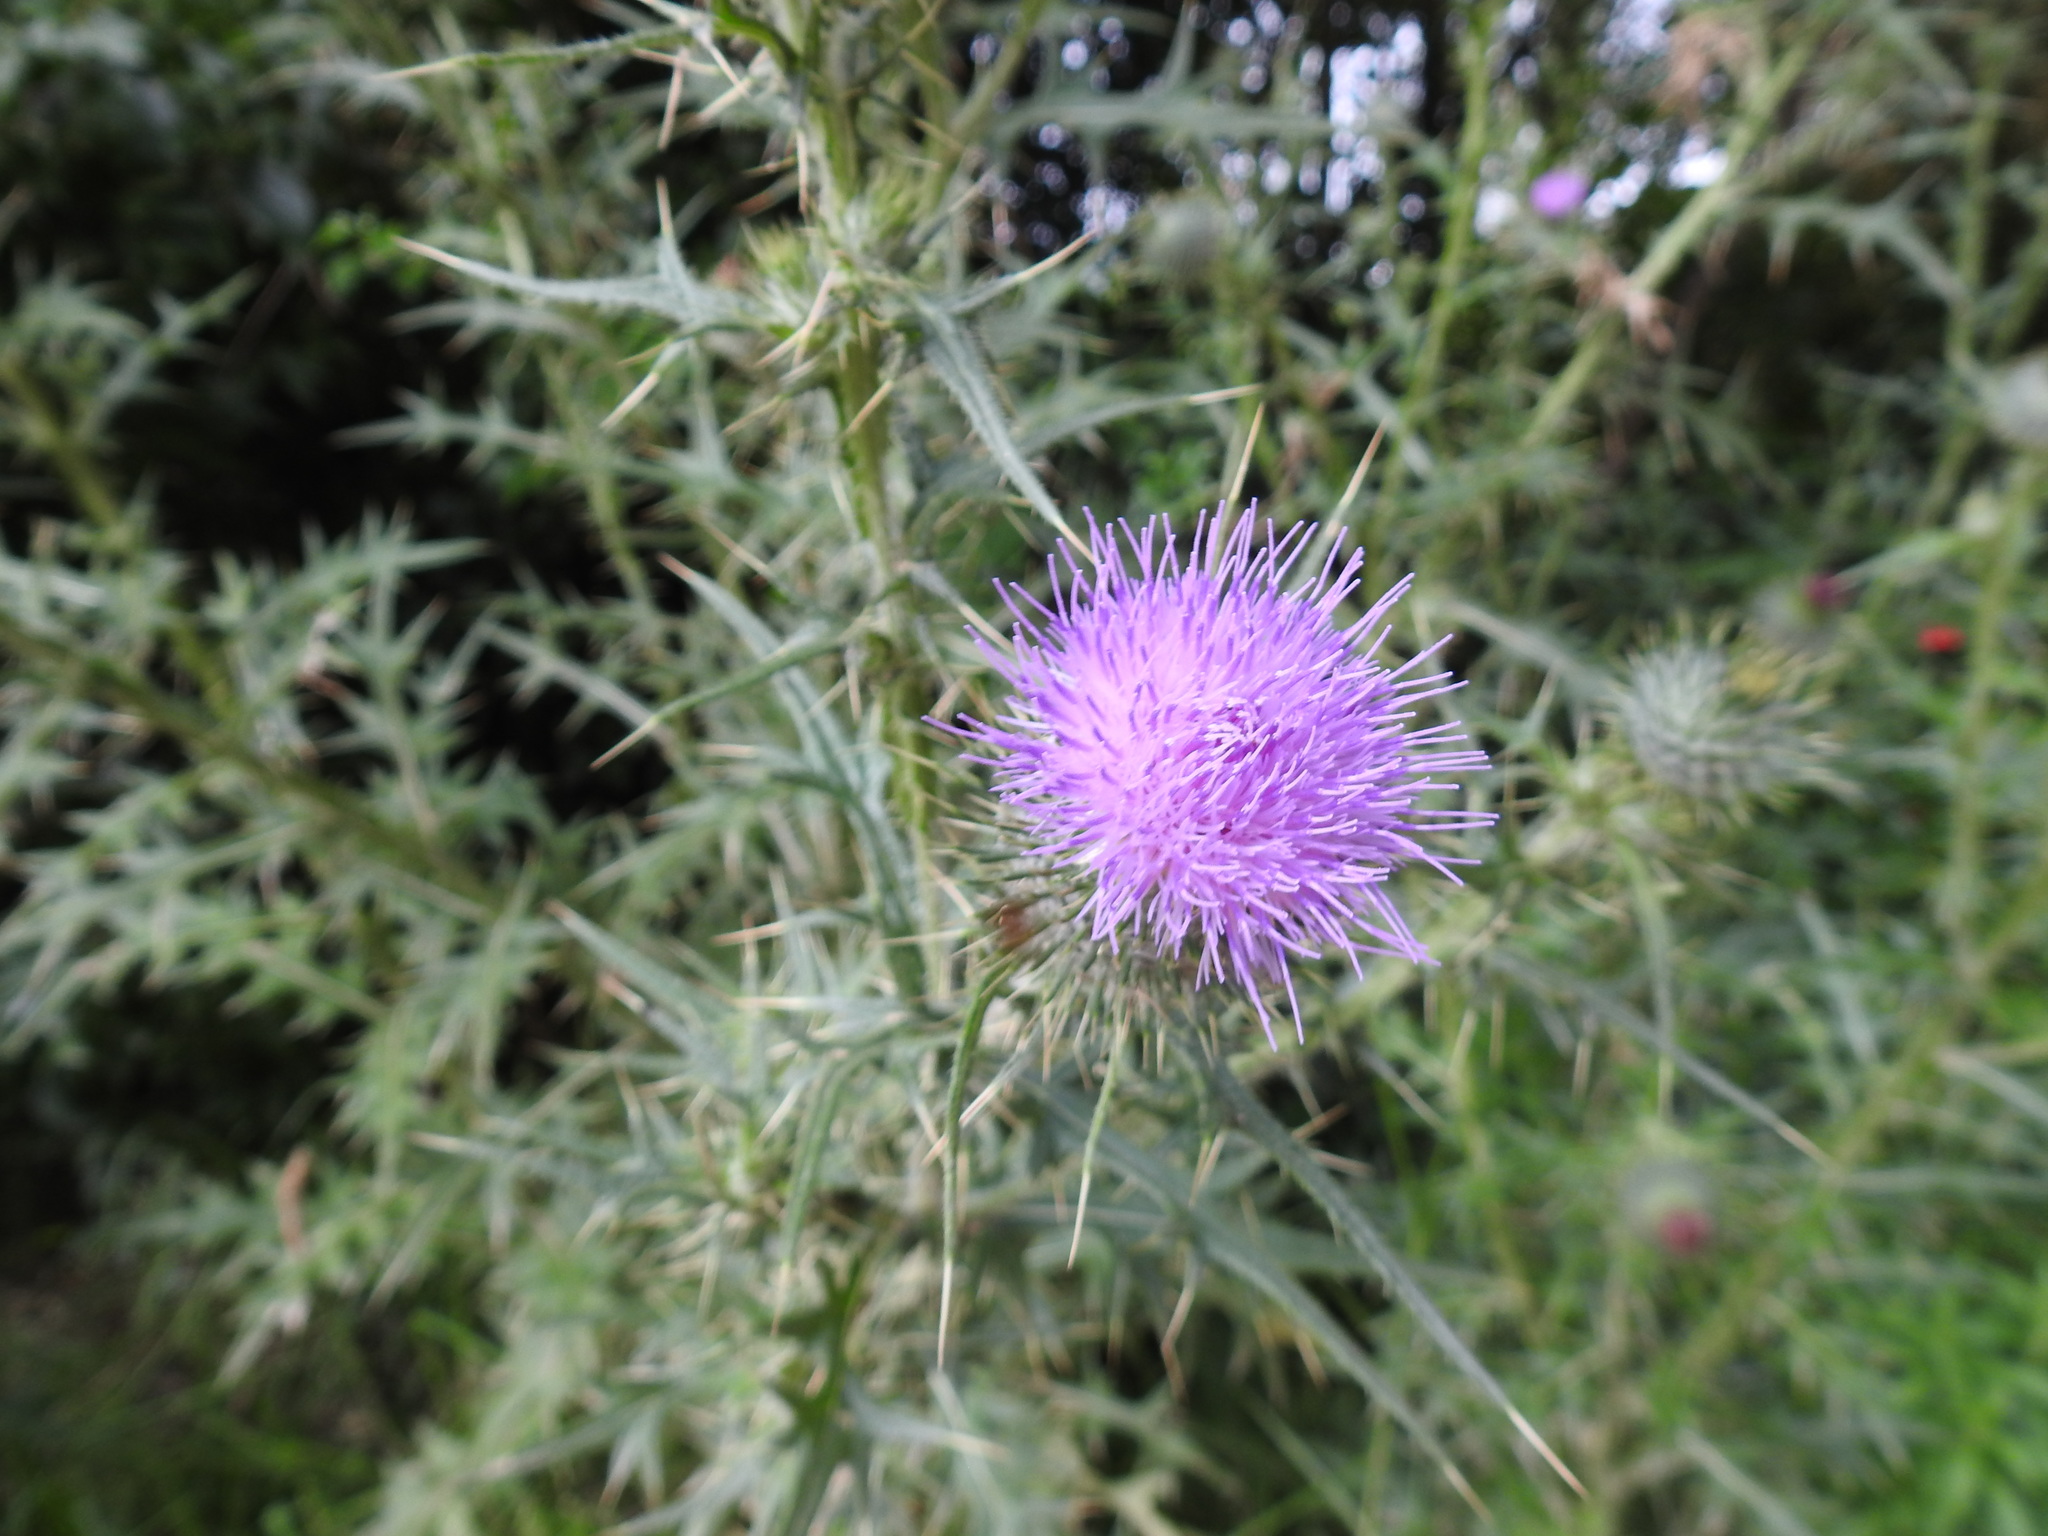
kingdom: Plantae
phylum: Tracheophyta
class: Magnoliopsida
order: Asterales
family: Asteraceae
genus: Cirsium
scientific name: Cirsium vulgare
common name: Bull thistle
